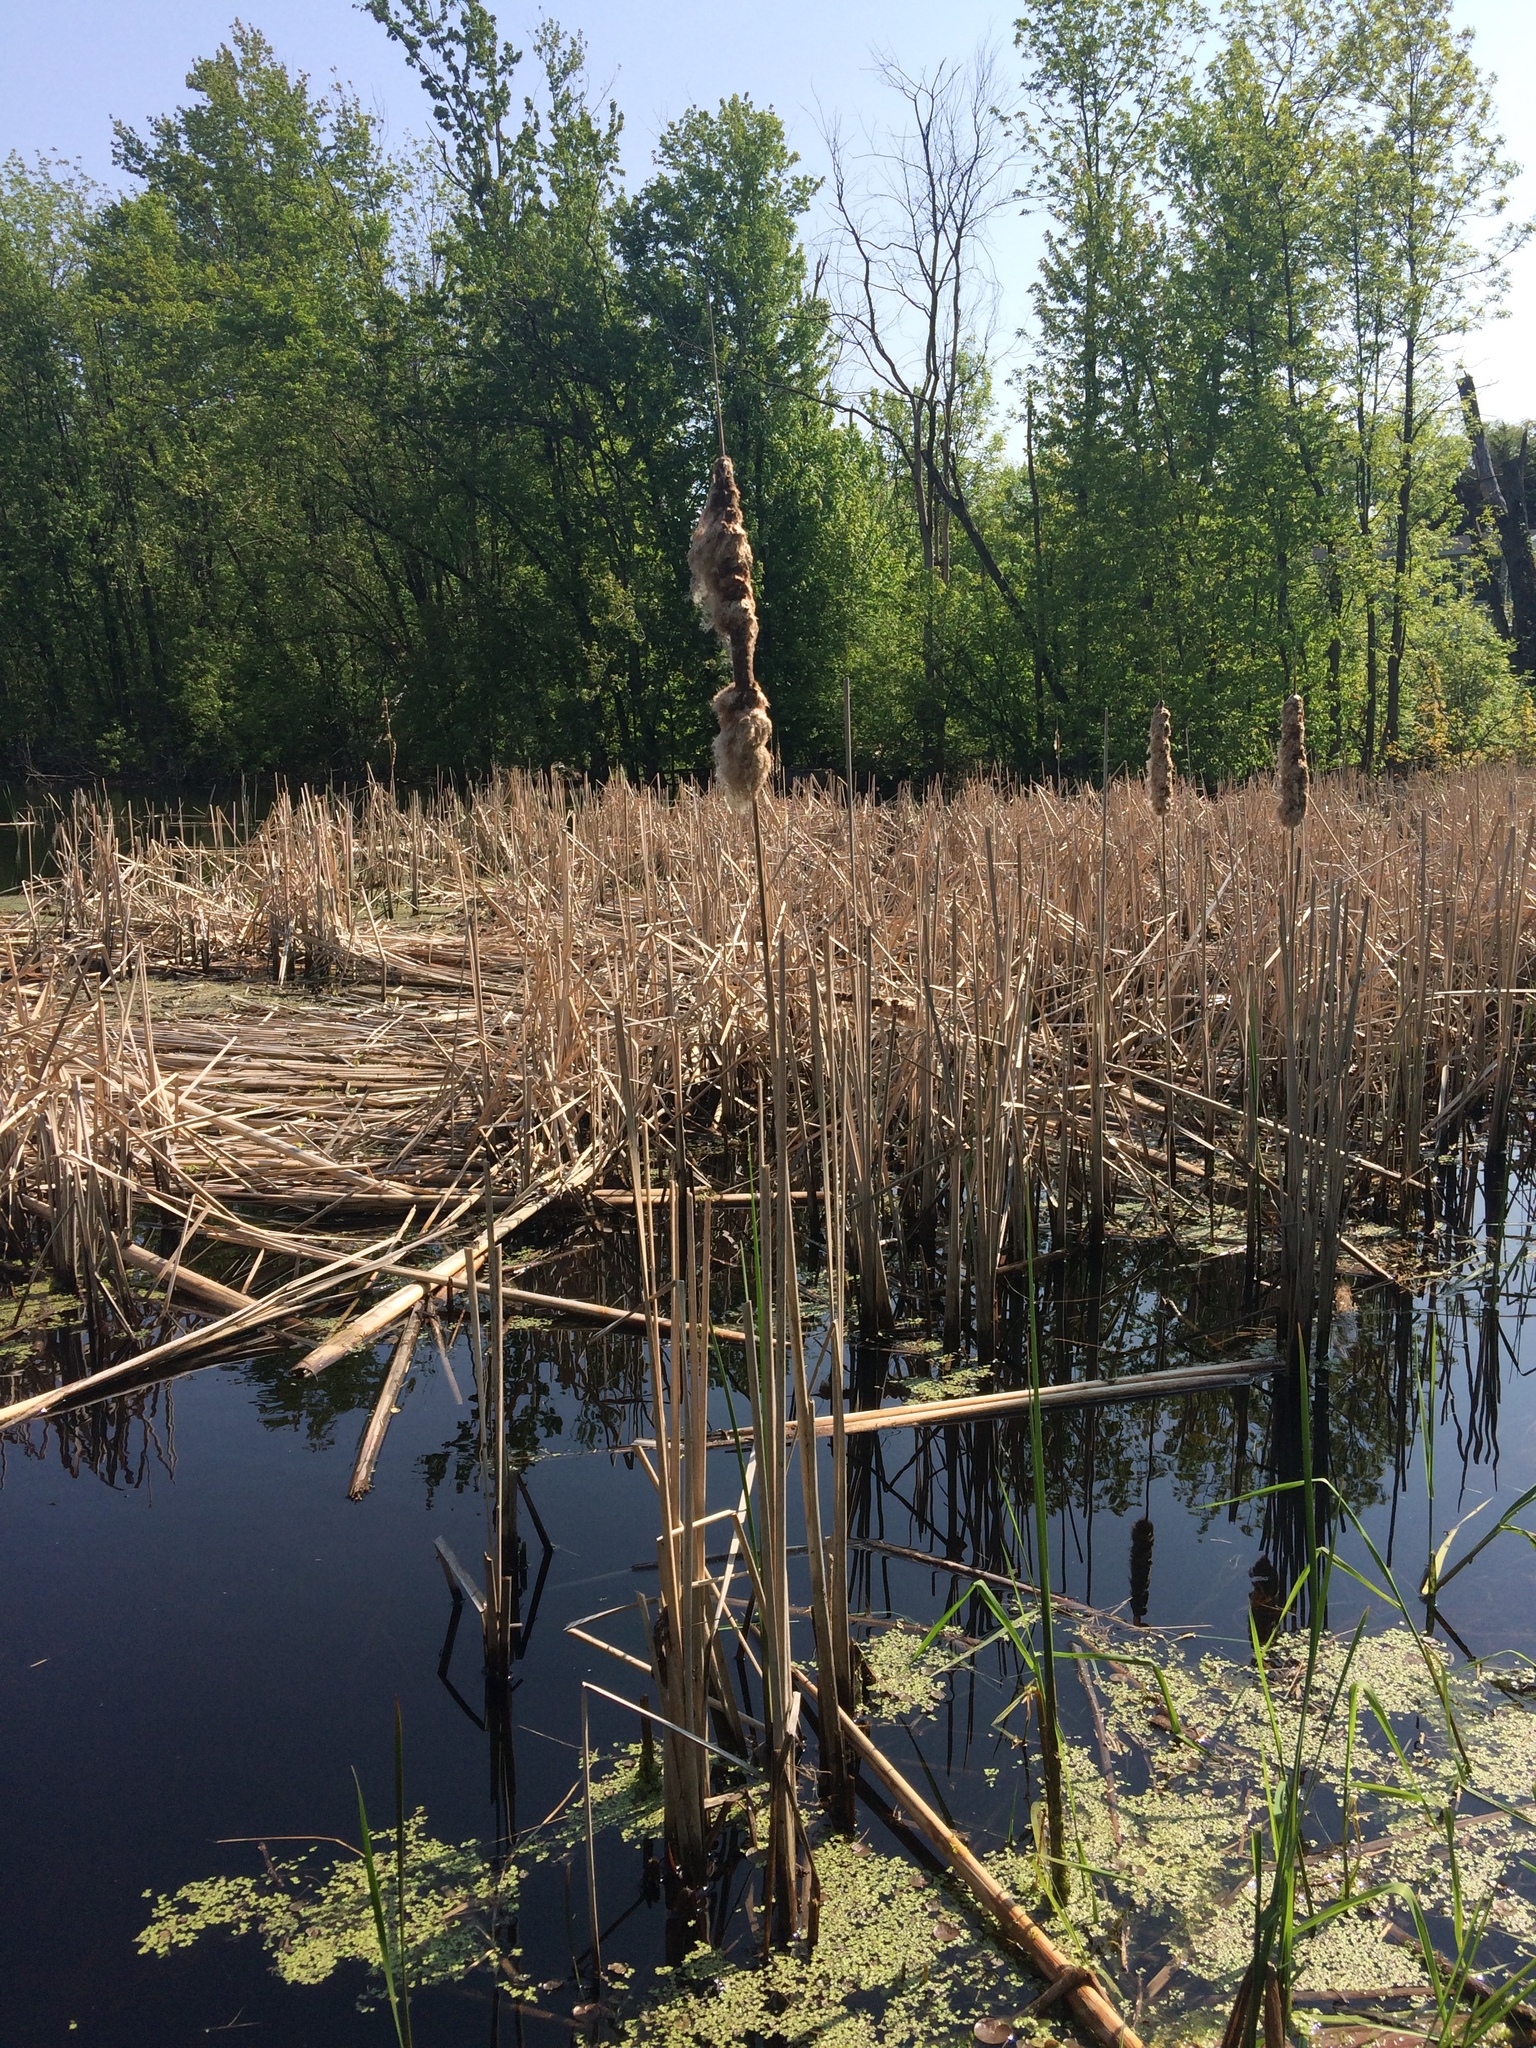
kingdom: Plantae
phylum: Tracheophyta
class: Liliopsida
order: Poales
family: Typhaceae
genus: Typha
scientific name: Typha angustifolia
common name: Lesser bulrush
